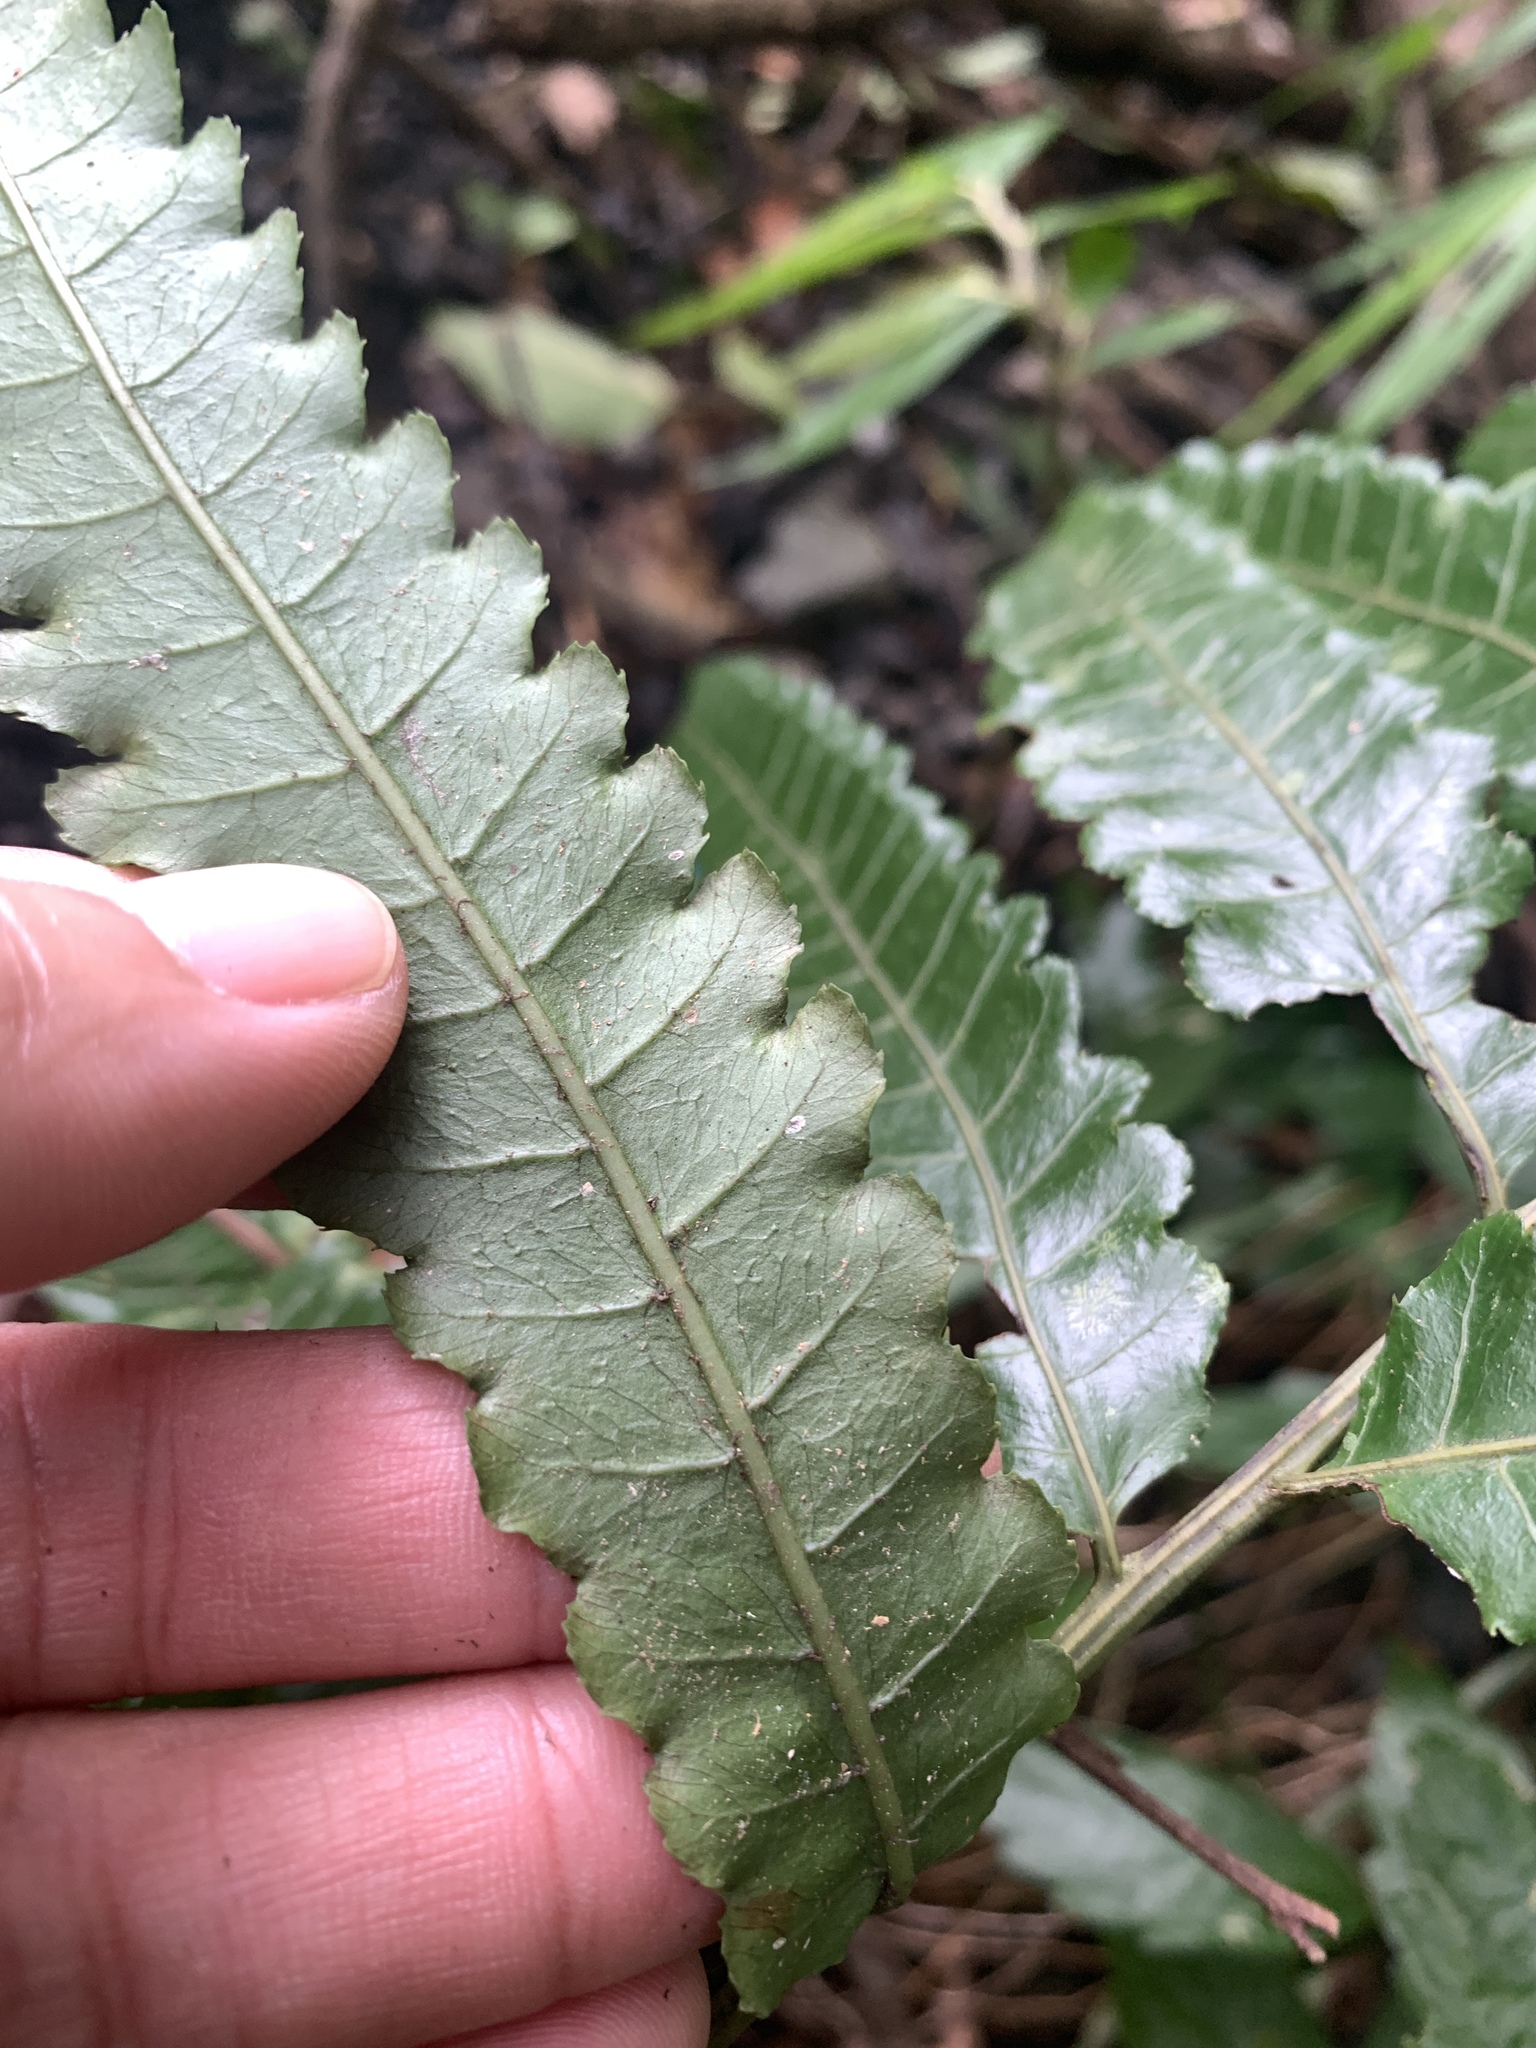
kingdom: Plantae
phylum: Tracheophyta
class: Polypodiopsida
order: Polypodiales
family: Dryopteridaceae
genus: Bolbitis
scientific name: Bolbitis subcordata
